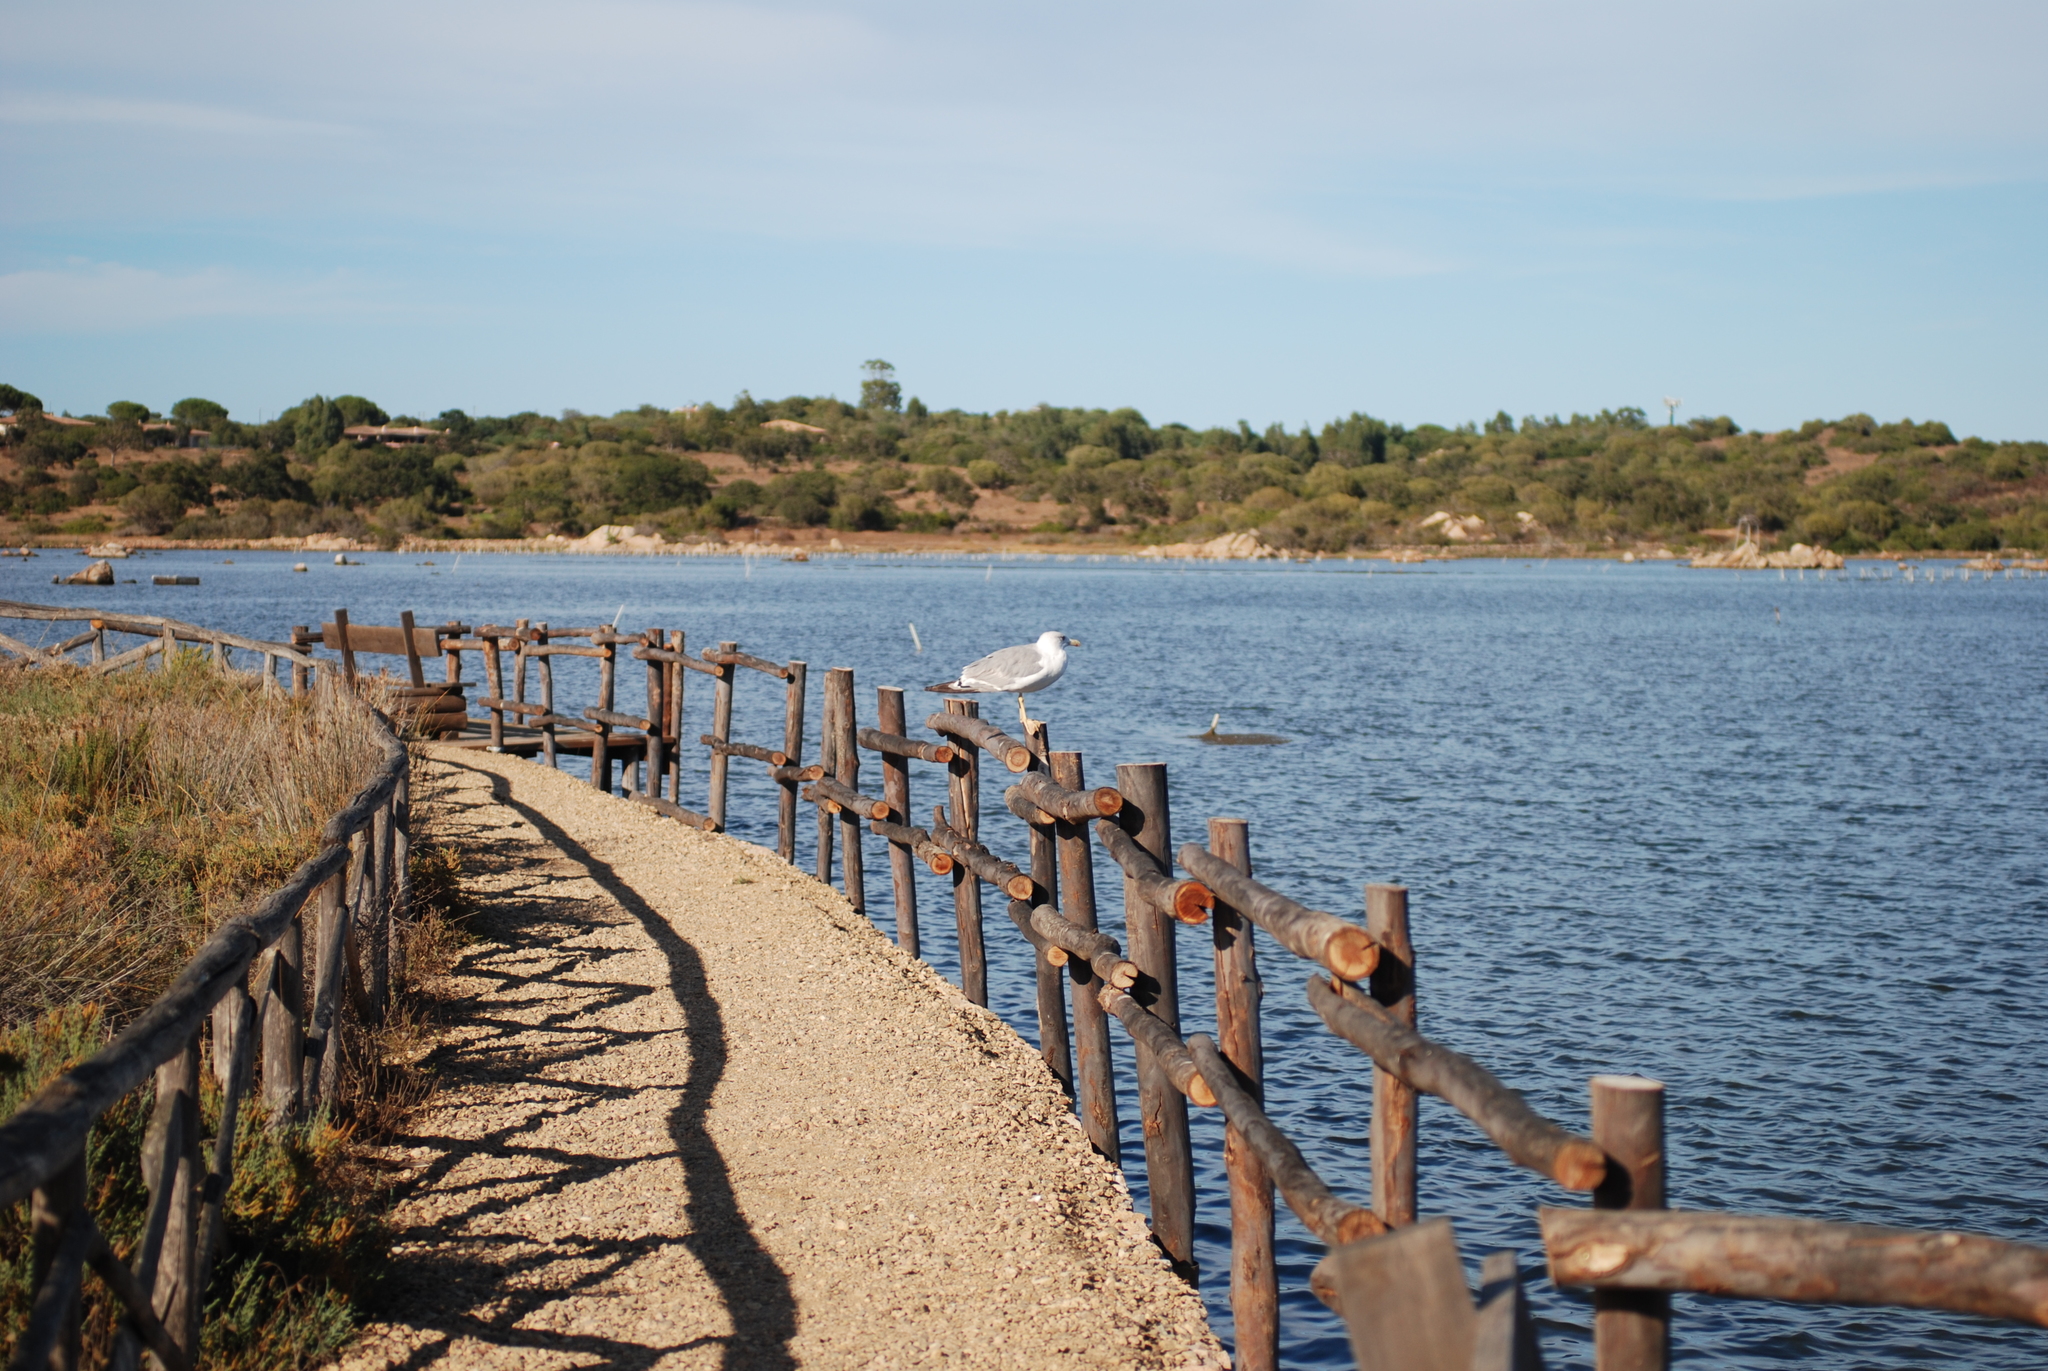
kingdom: Animalia
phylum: Chordata
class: Aves
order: Charadriiformes
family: Laridae
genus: Larus
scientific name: Larus michahellis
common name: Yellow-legged gull
